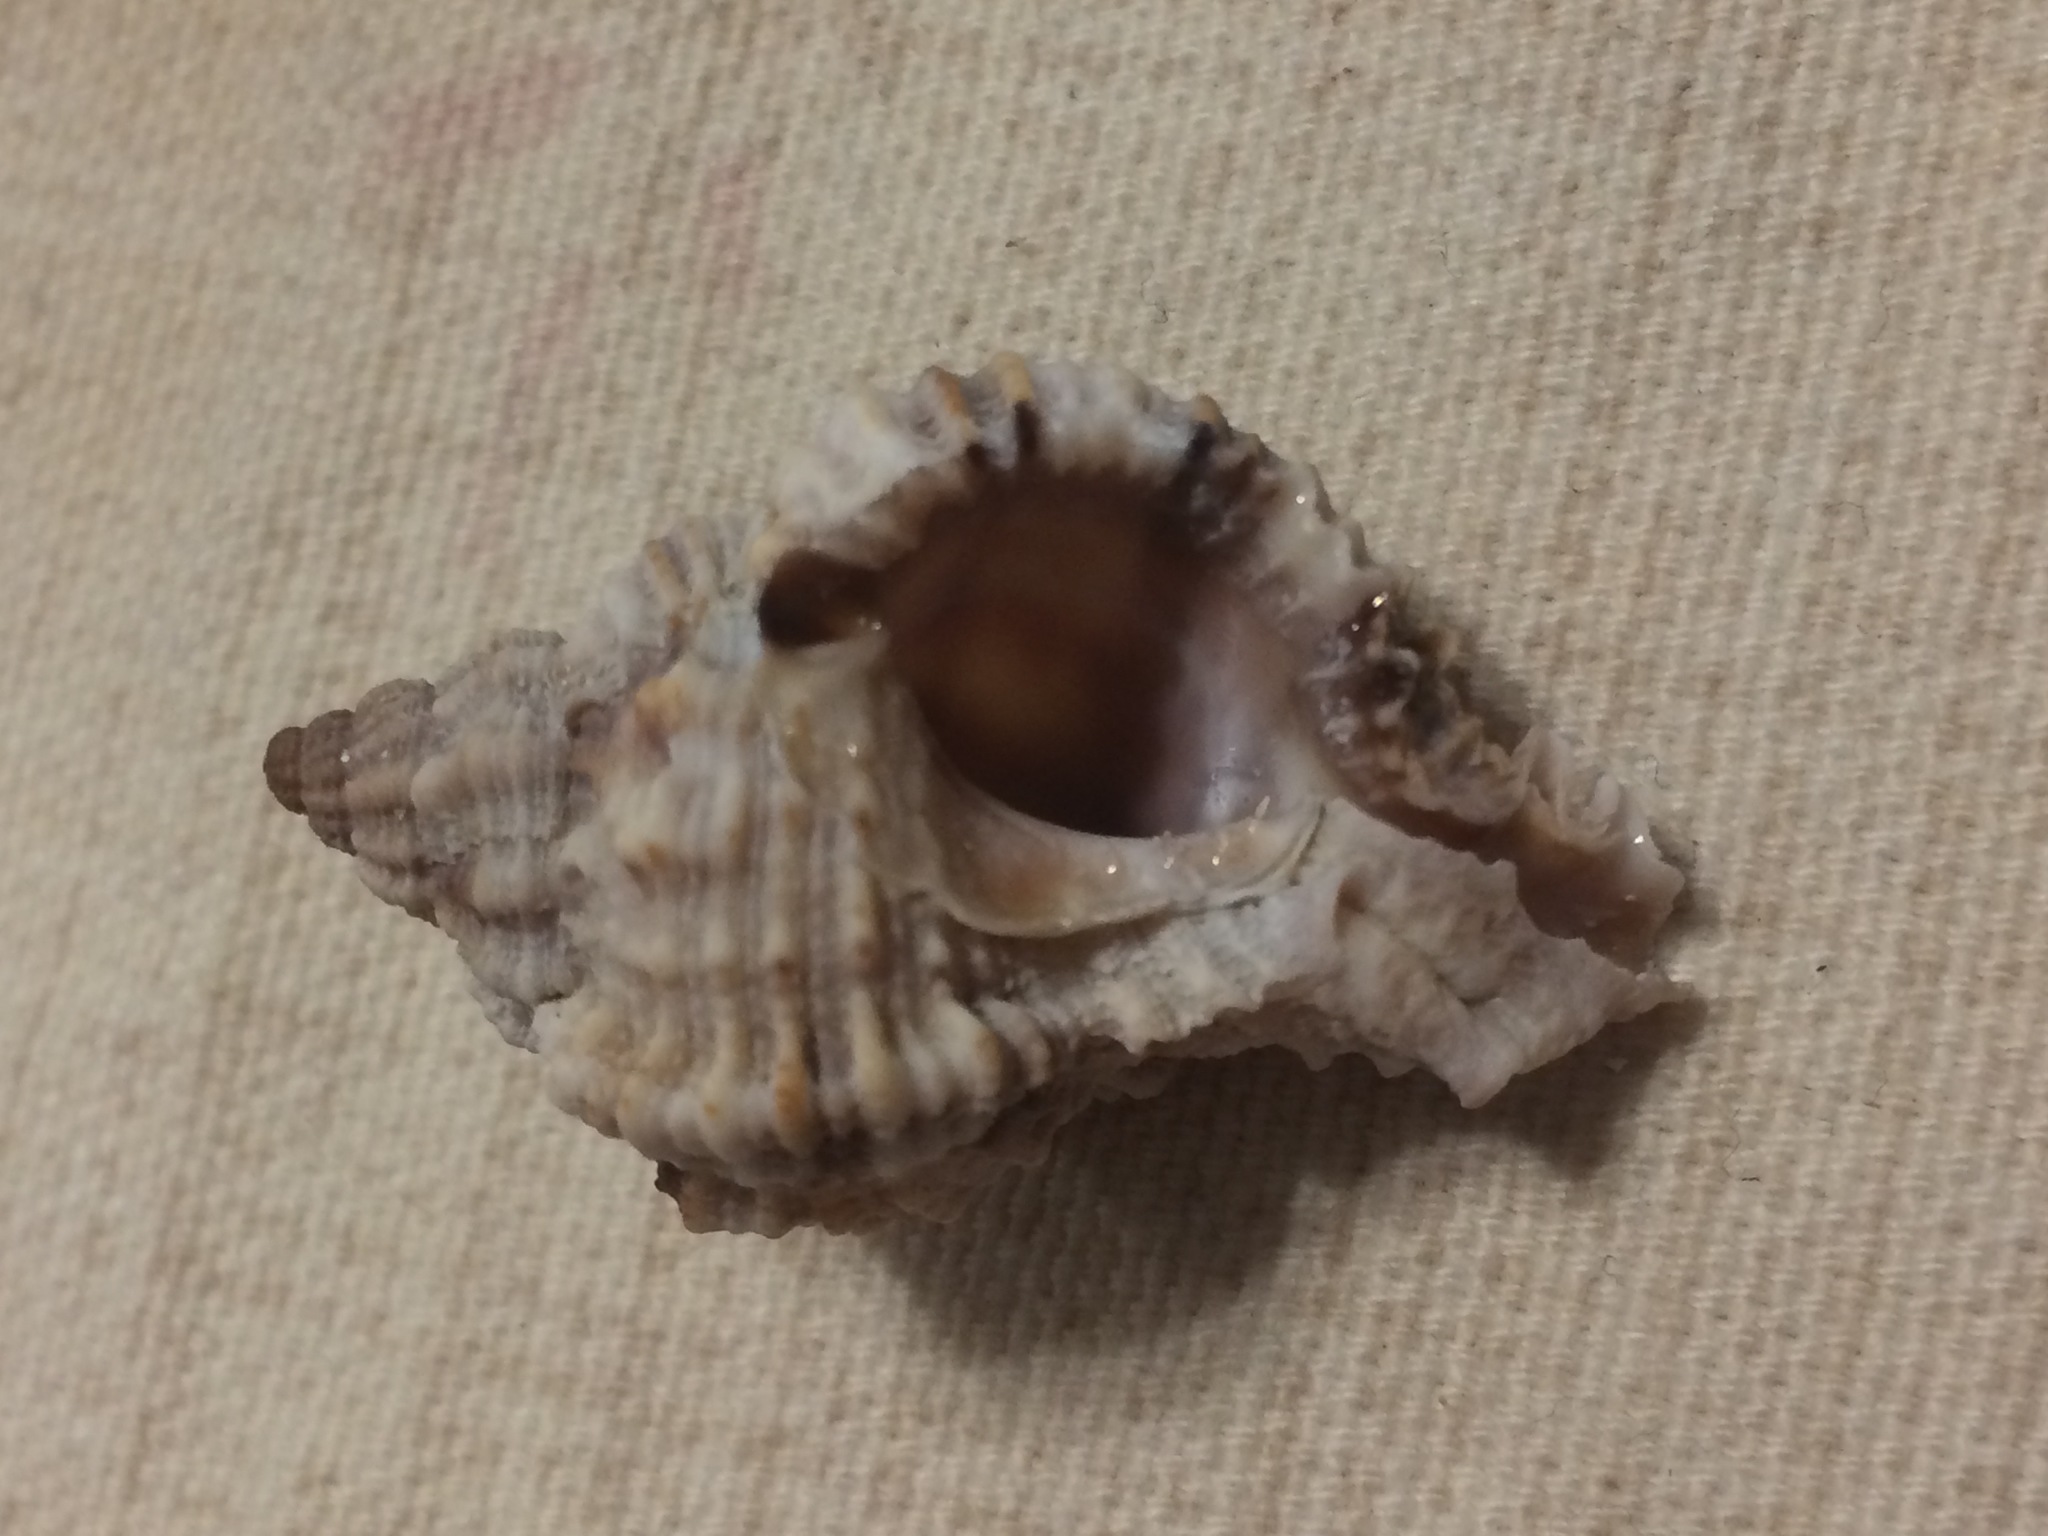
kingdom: Animalia
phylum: Mollusca
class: Gastropoda
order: Neogastropoda
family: Muricidae
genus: Phyllonotus
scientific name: Phyllonotus pomum
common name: Apple murex
